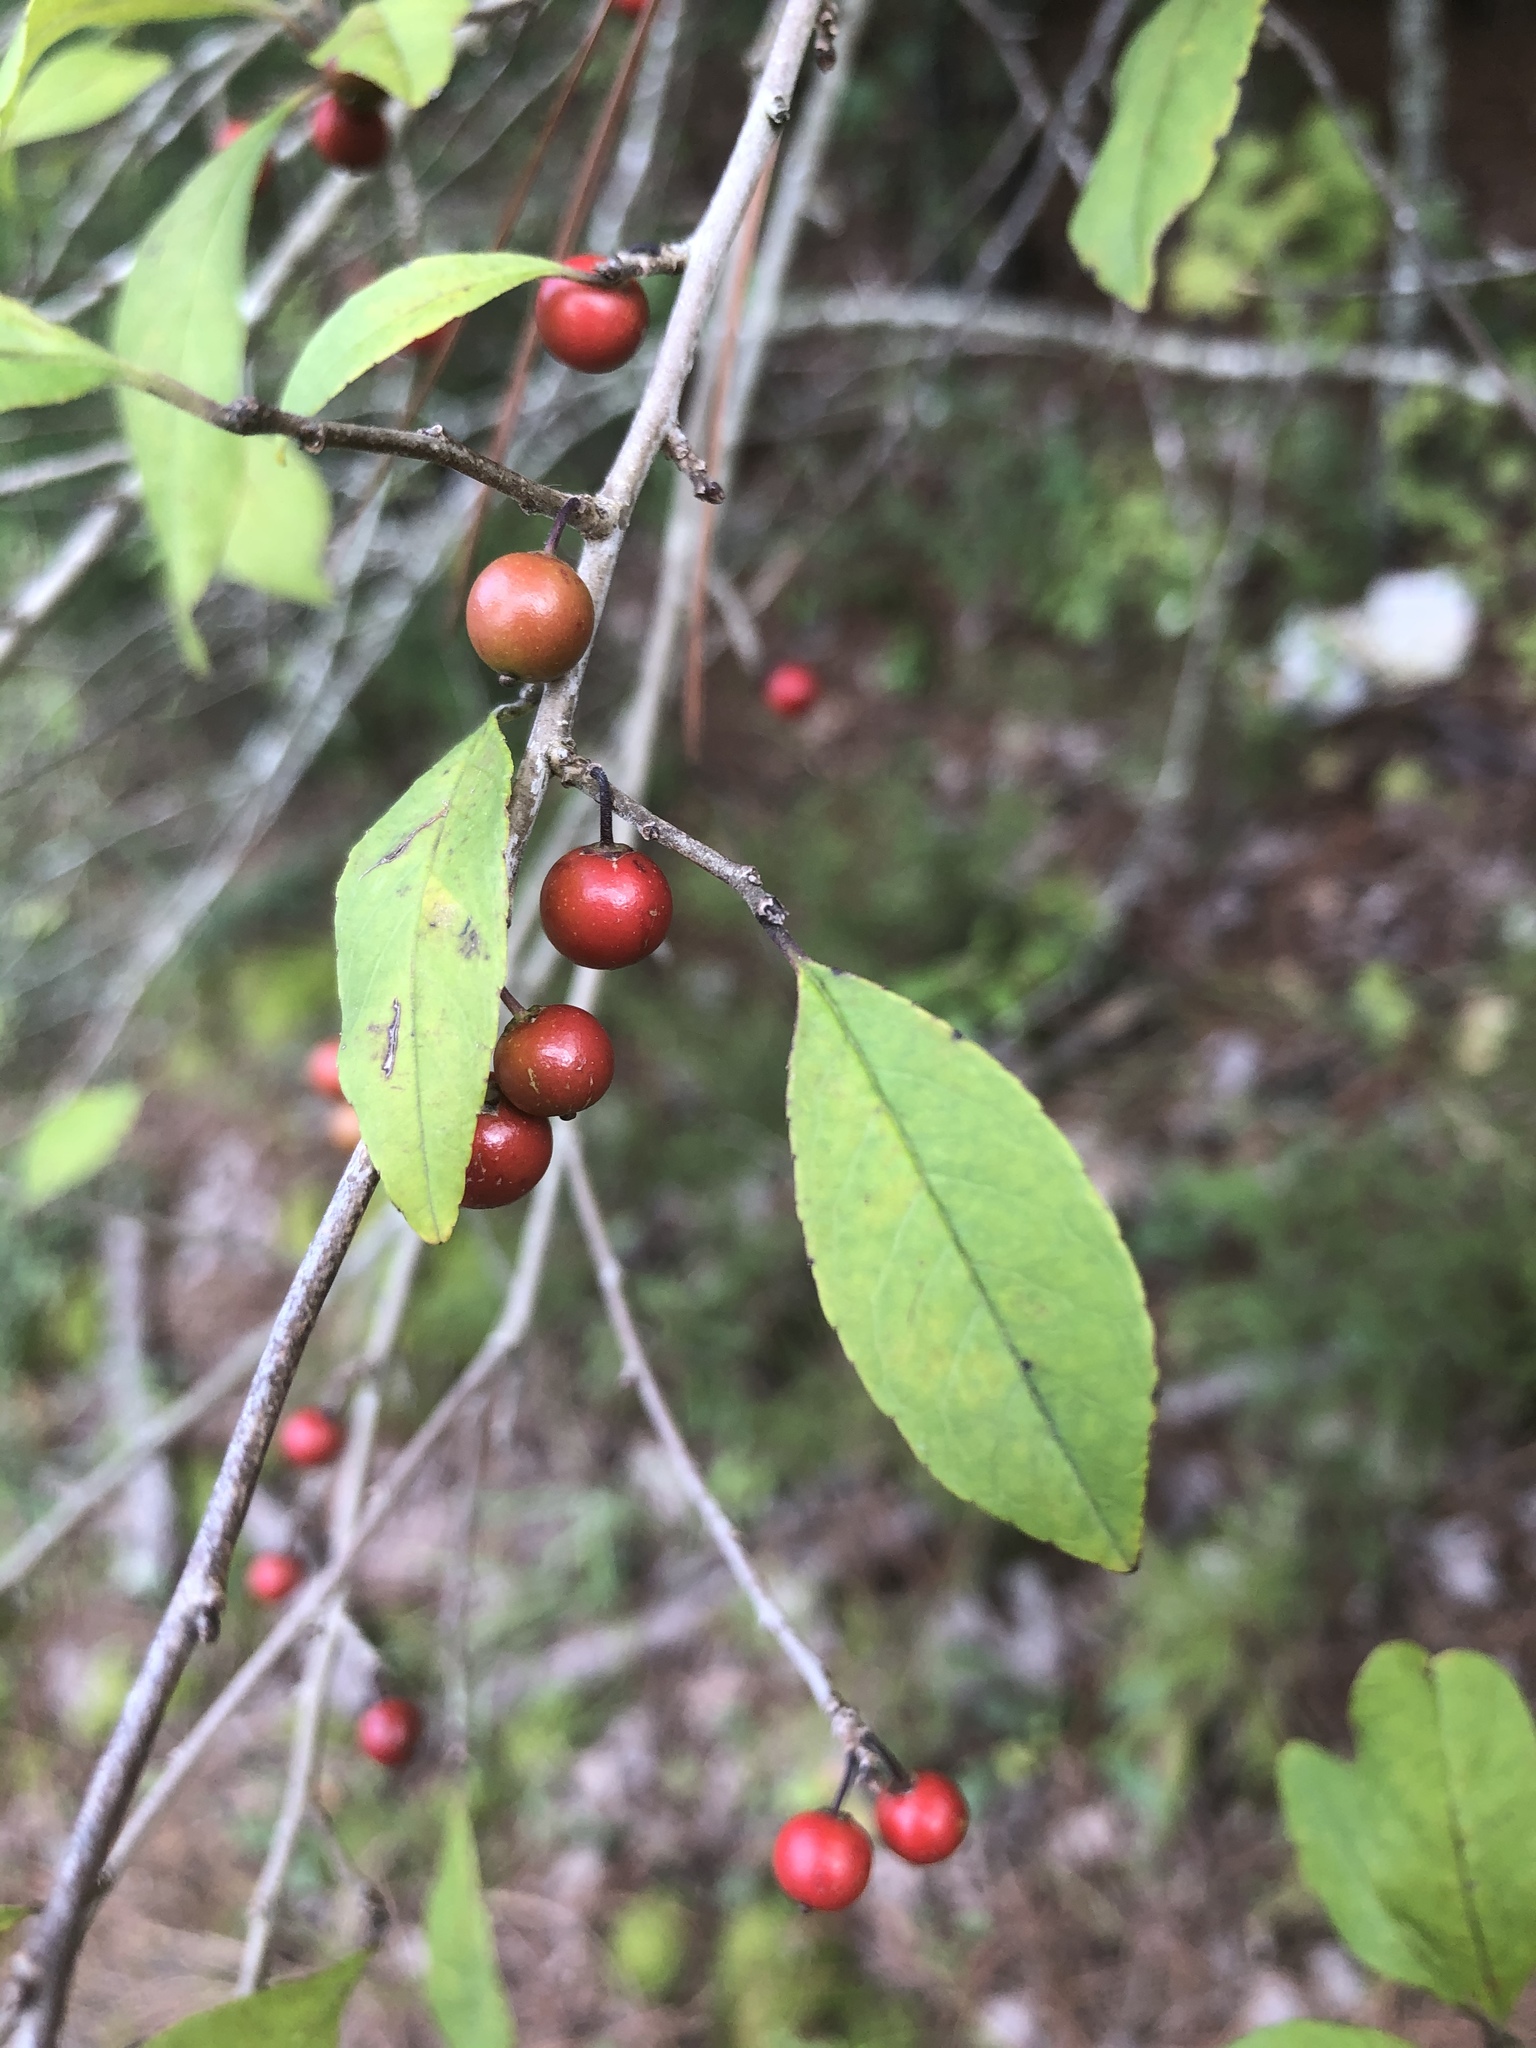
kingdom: Plantae
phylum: Tracheophyta
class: Magnoliopsida
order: Aquifoliales
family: Aquifoliaceae
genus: Ilex
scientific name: Ilex decidua
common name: Possum-haw
